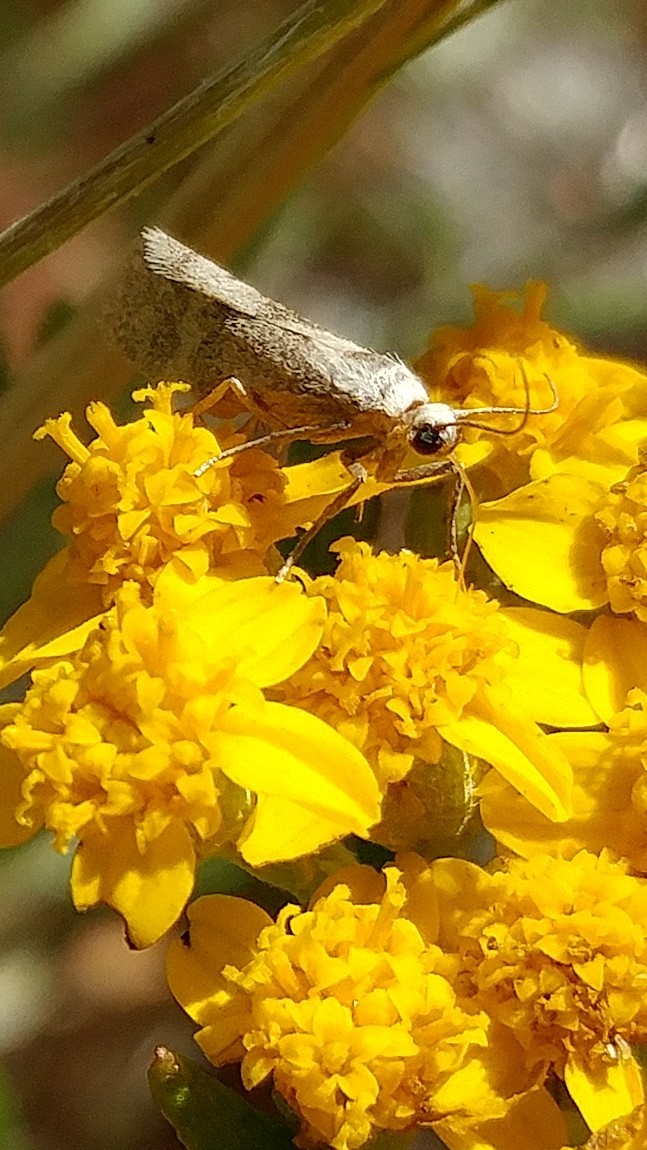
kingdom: Animalia
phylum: Arthropoda
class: Insecta
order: Lepidoptera
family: Erebidae
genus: Cisthene
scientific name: Cisthene faustinula
